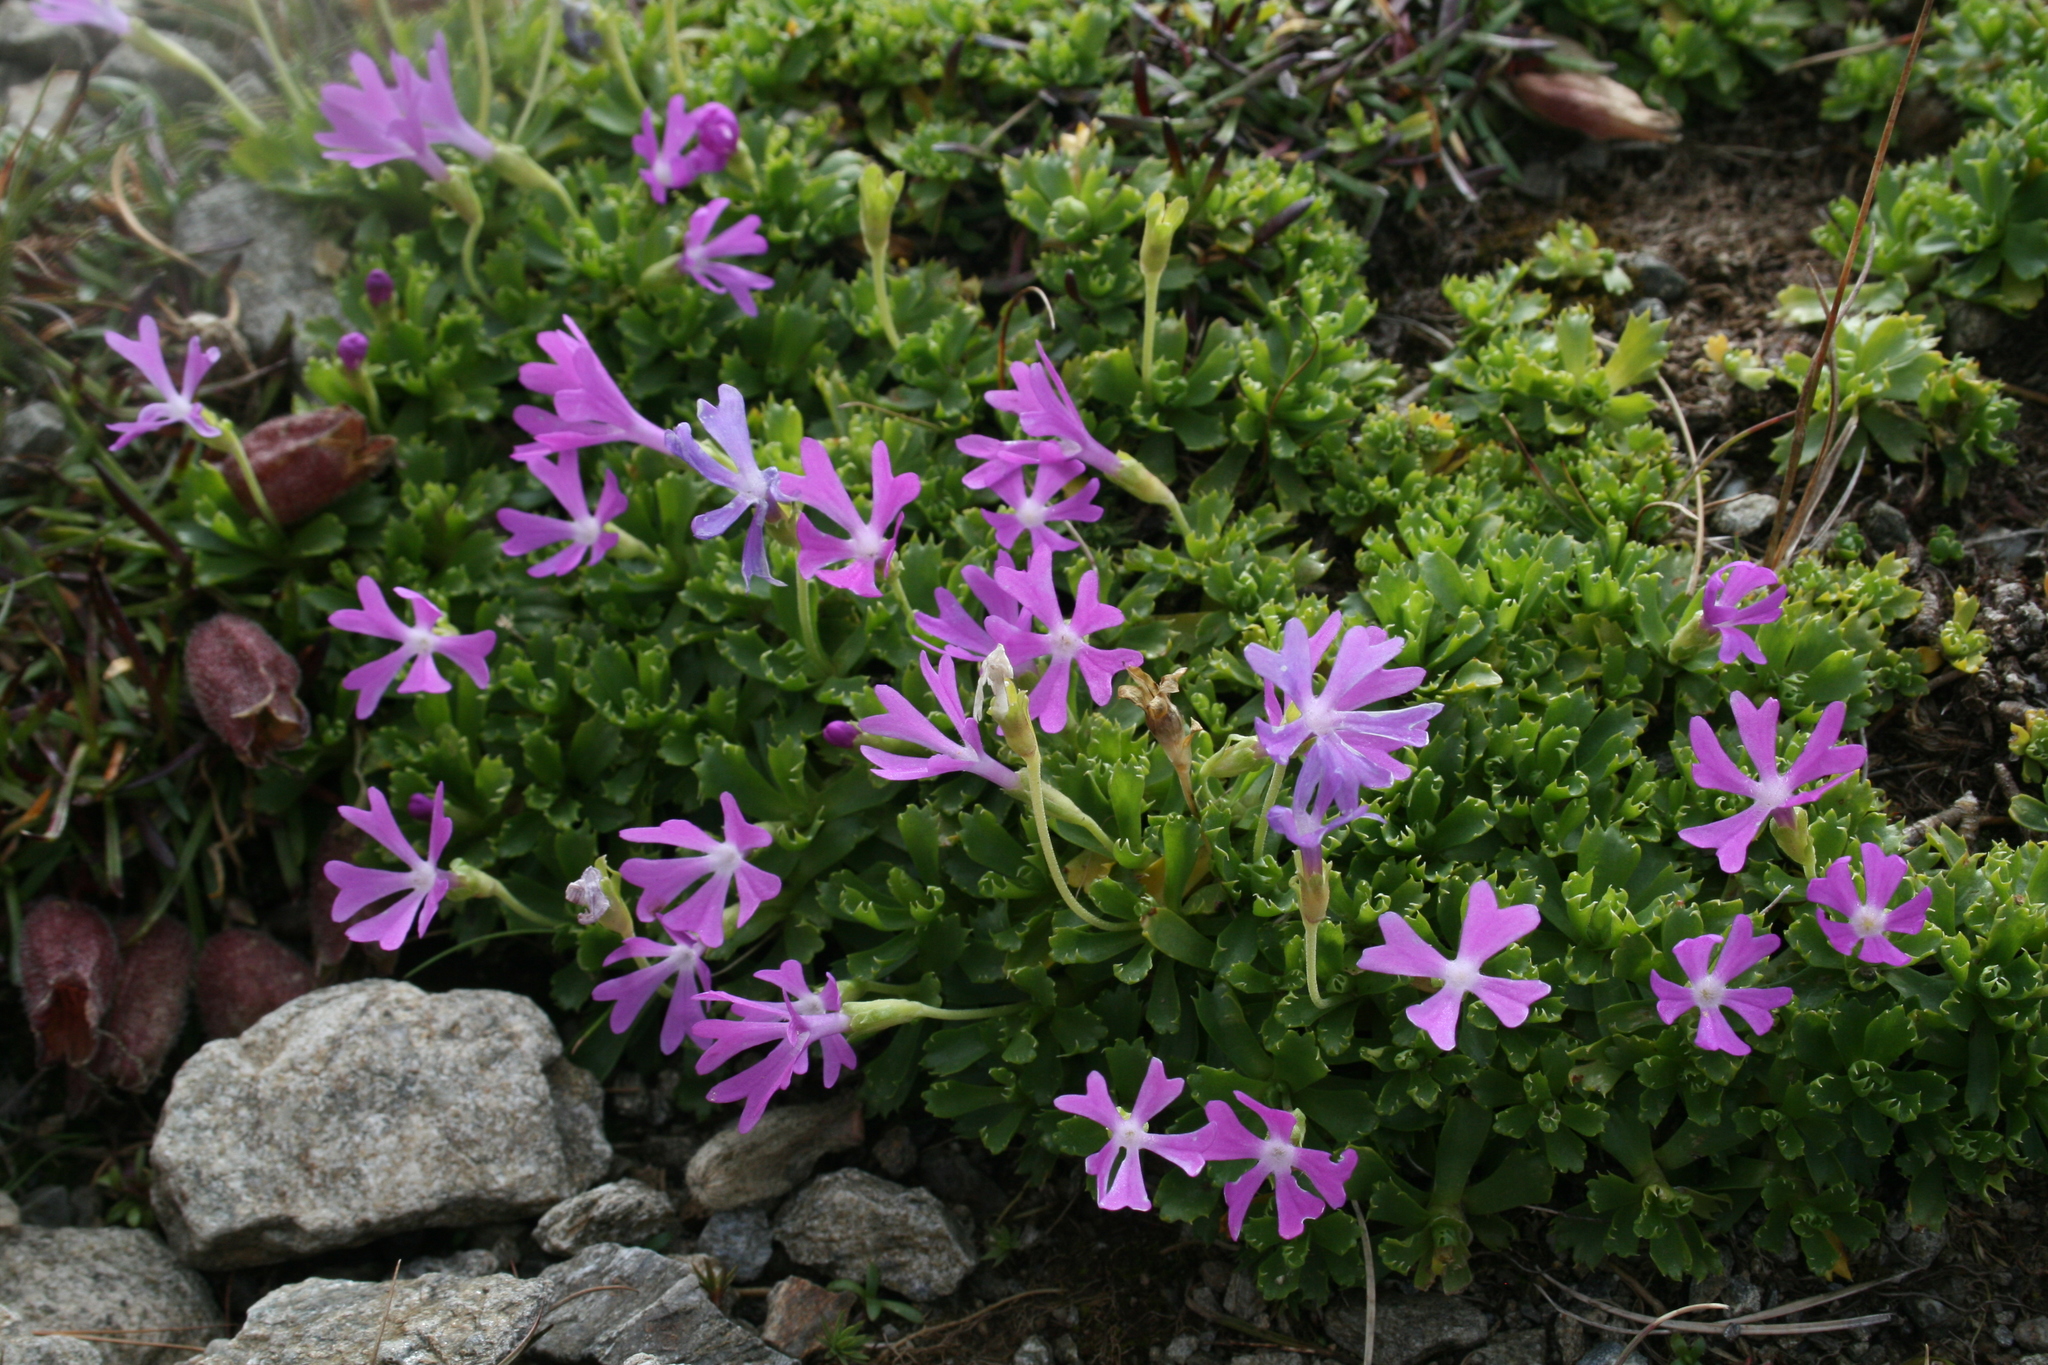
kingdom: Plantae
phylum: Tracheophyta
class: Magnoliopsida
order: Ericales
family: Primulaceae
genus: Primula
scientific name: Primula minima
